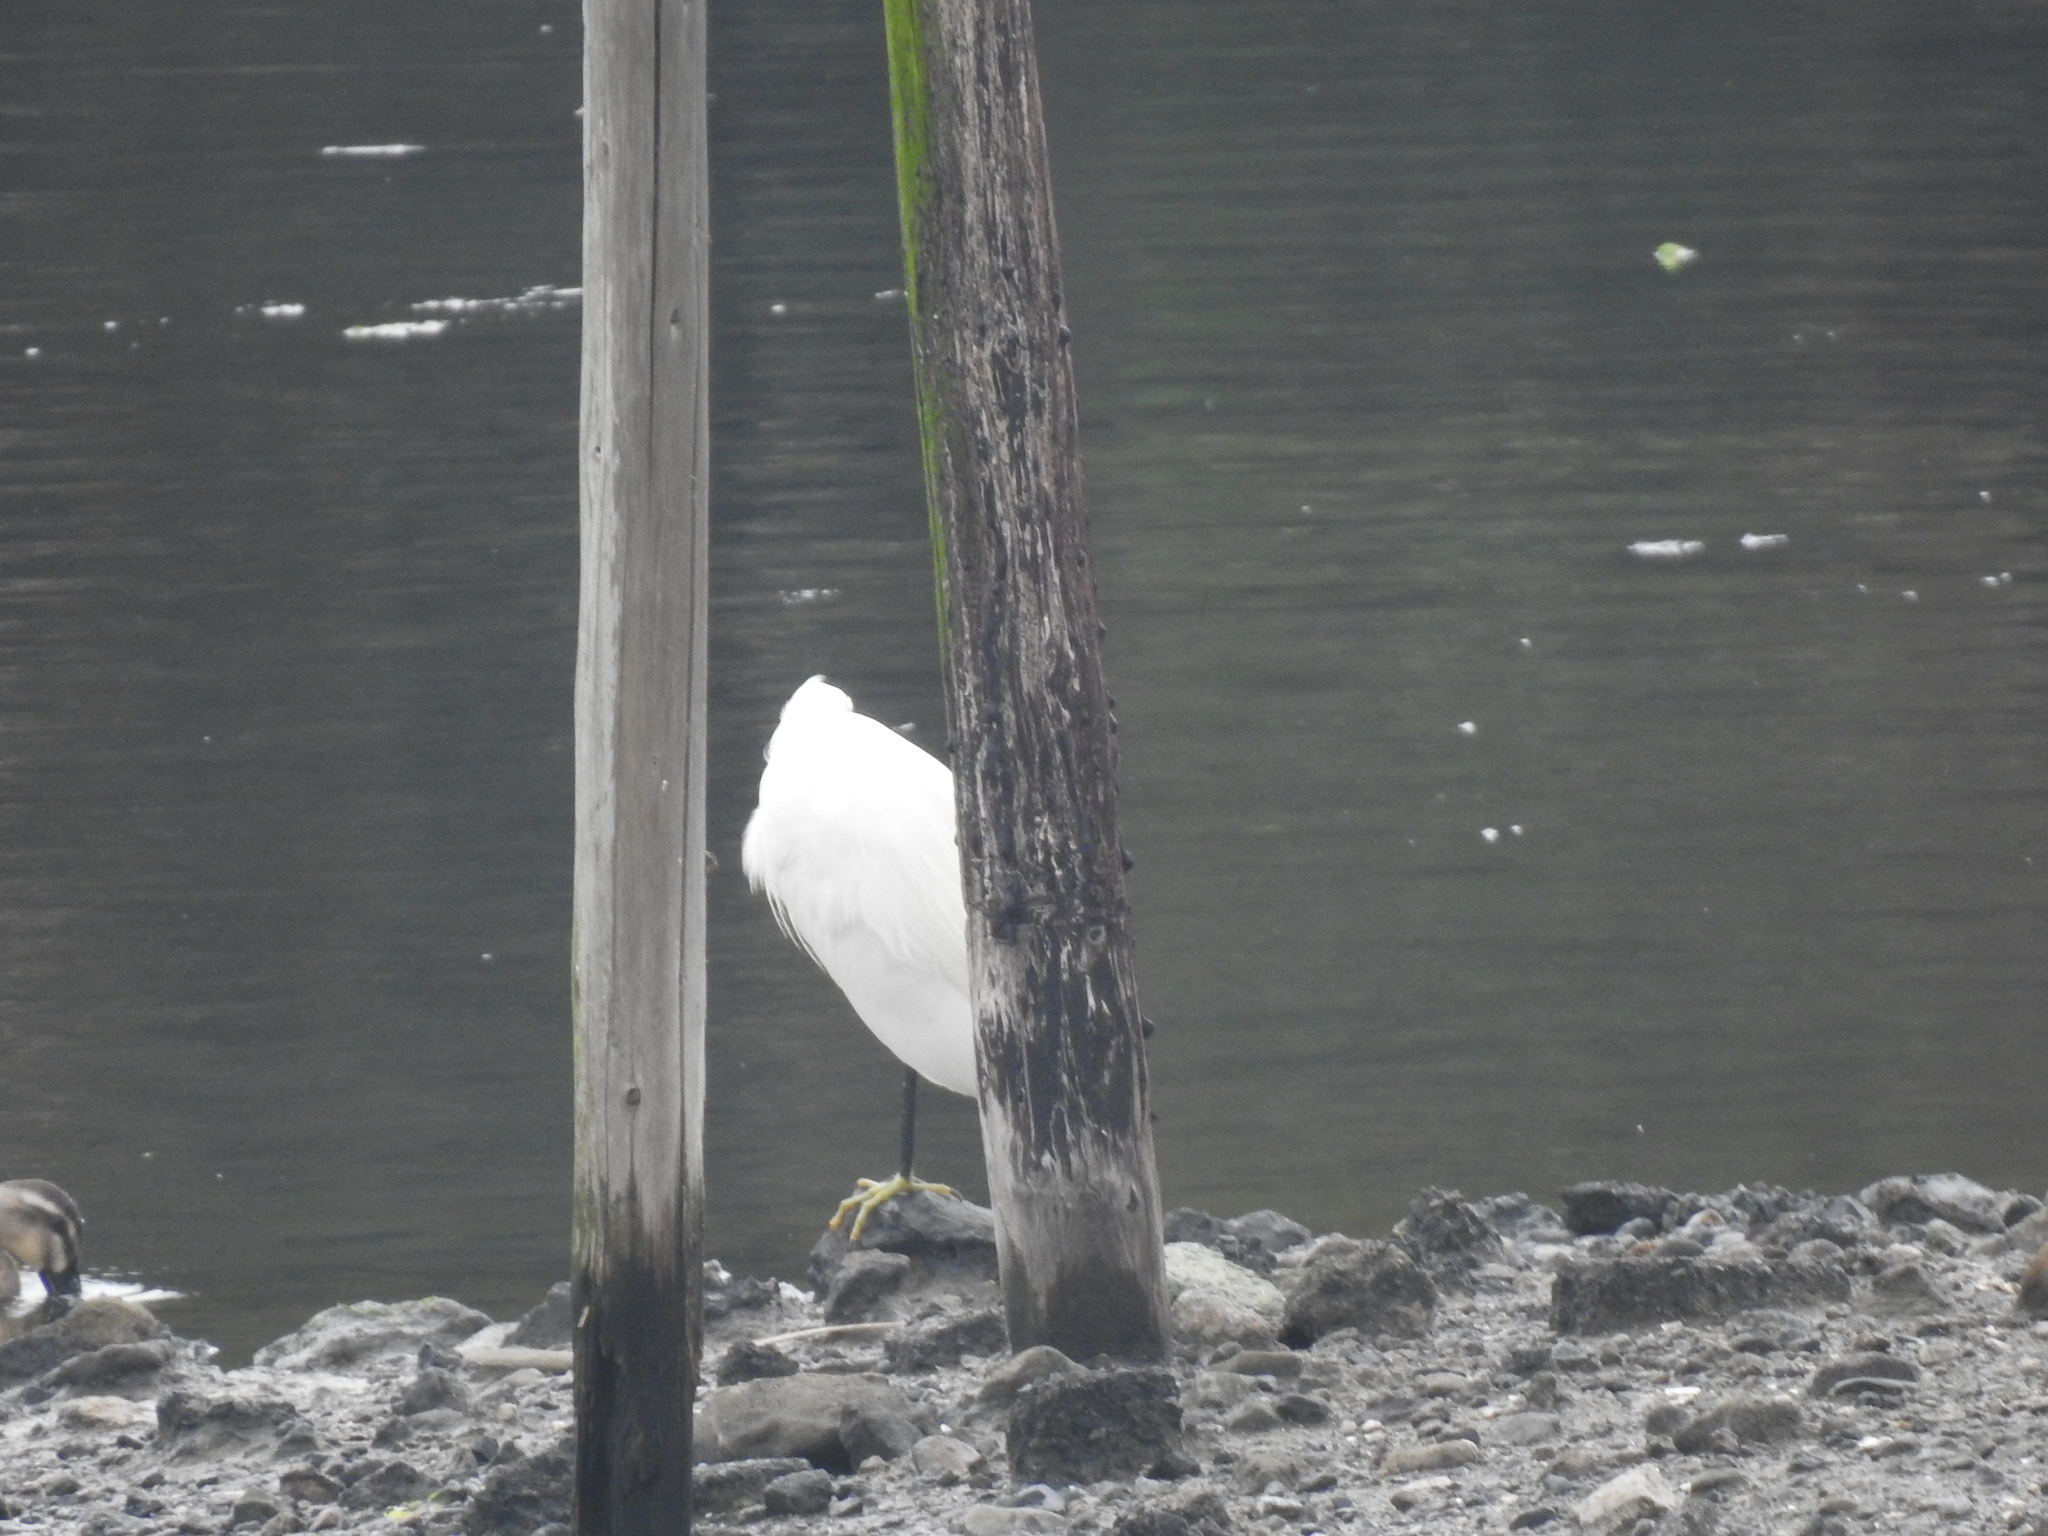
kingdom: Animalia
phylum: Chordata
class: Aves
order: Pelecaniformes
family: Ardeidae
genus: Egretta
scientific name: Egretta garzetta
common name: Little egret
